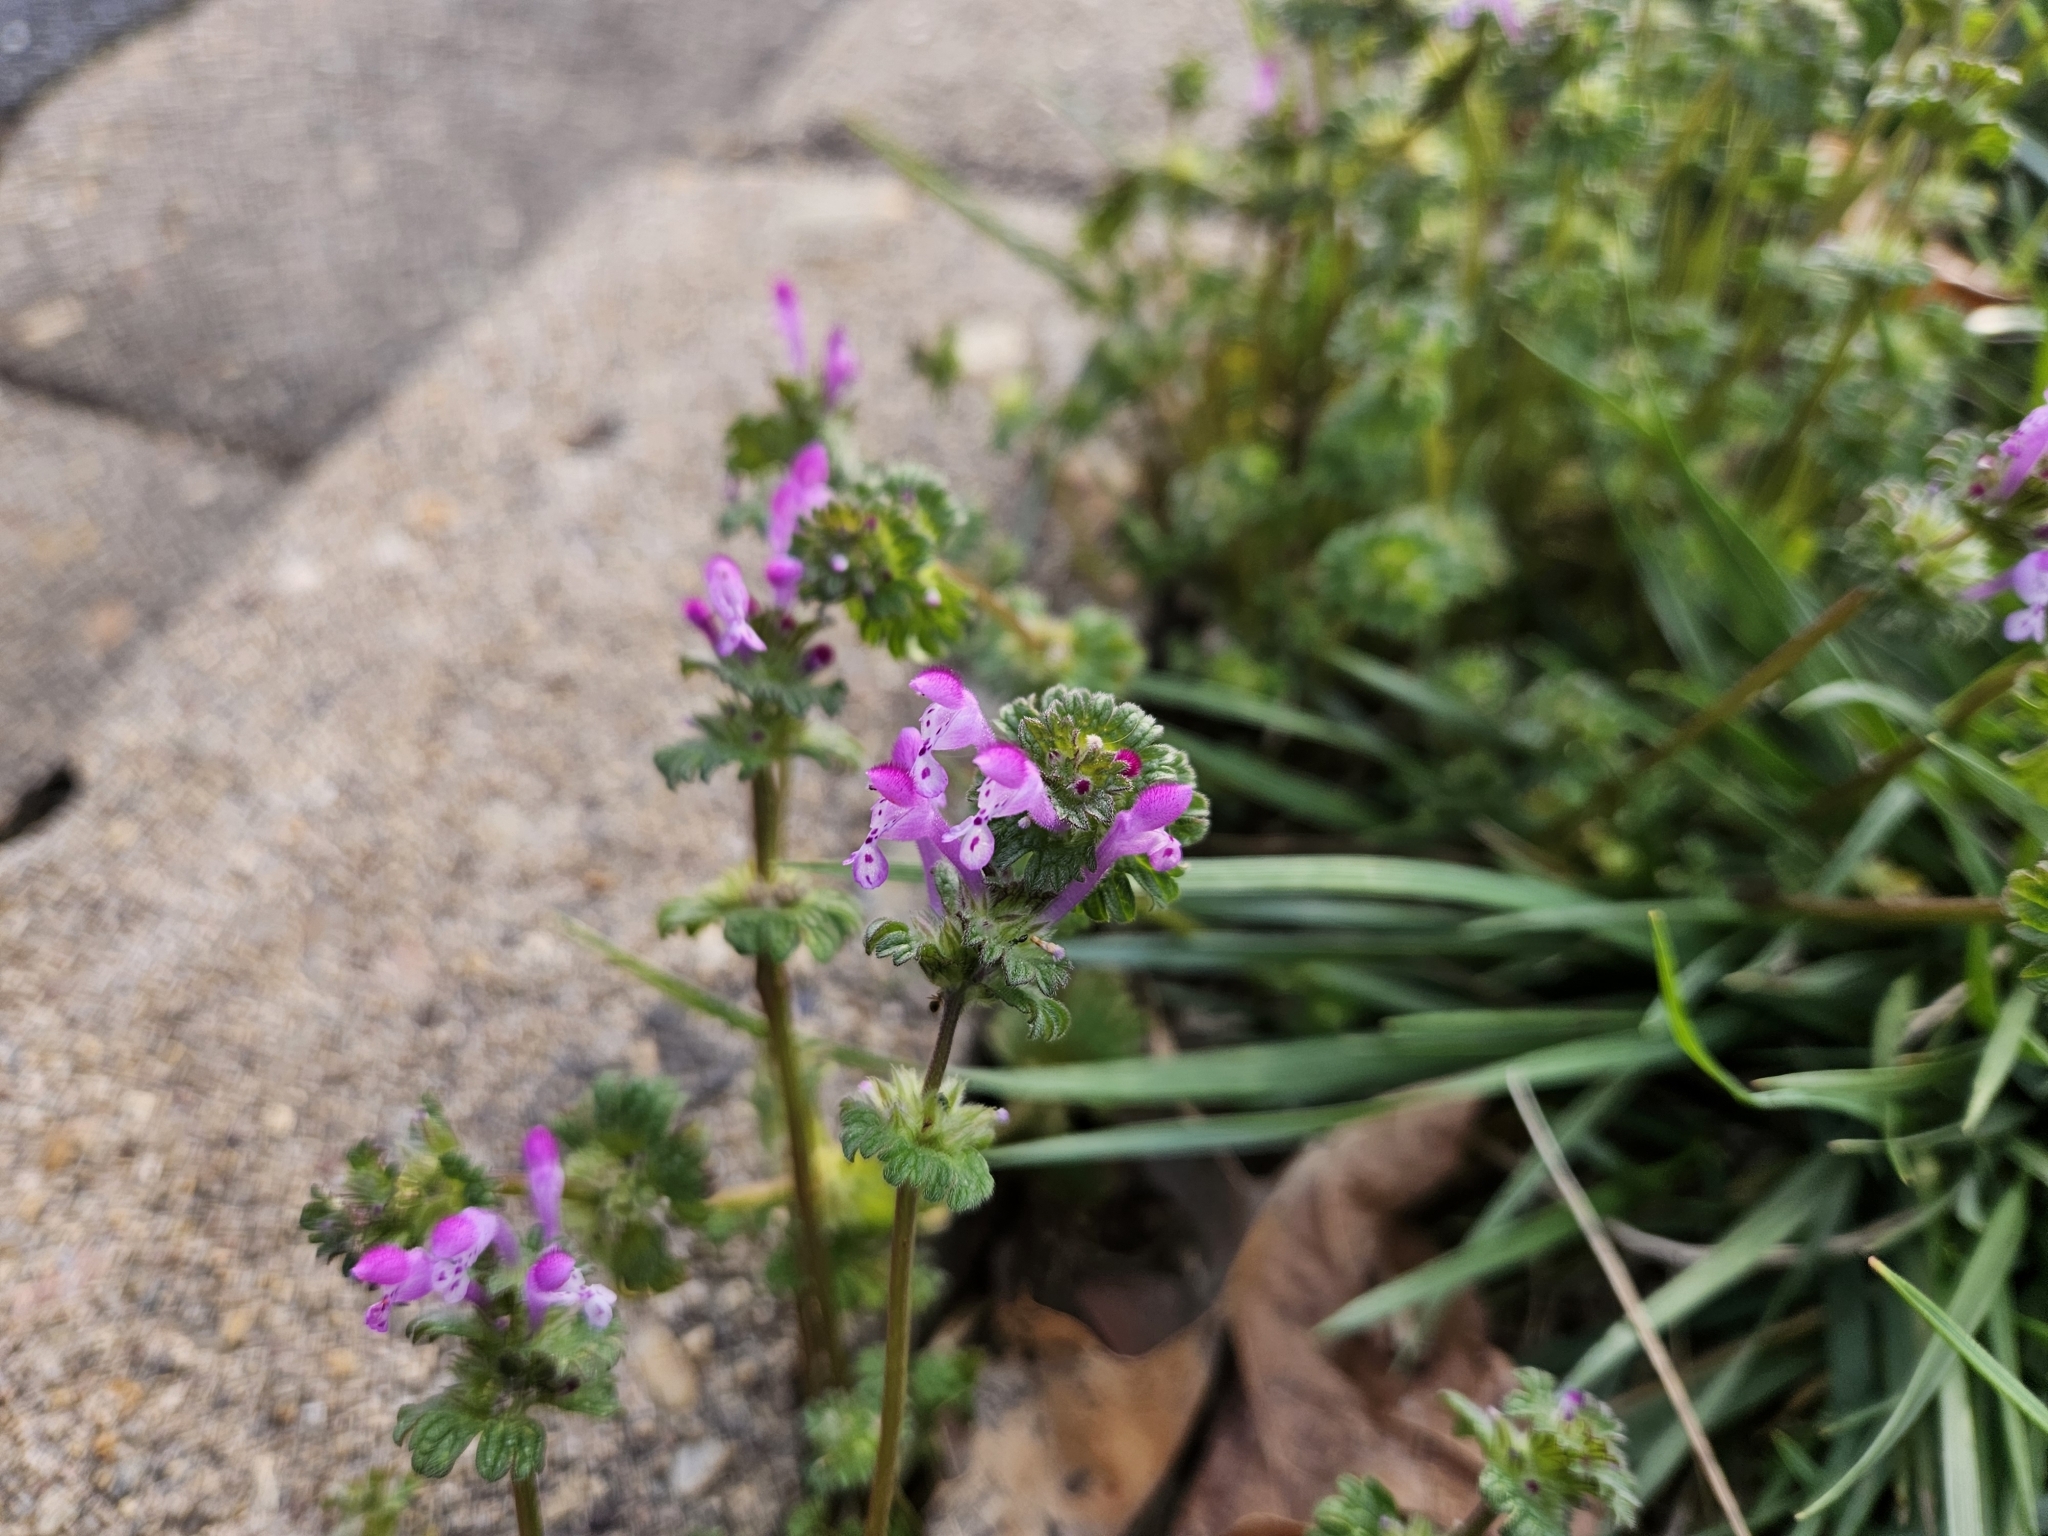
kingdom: Plantae
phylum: Tracheophyta
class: Magnoliopsida
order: Lamiales
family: Lamiaceae
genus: Lamium
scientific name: Lamium amplexicaule
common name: Henbit dead-nettle
